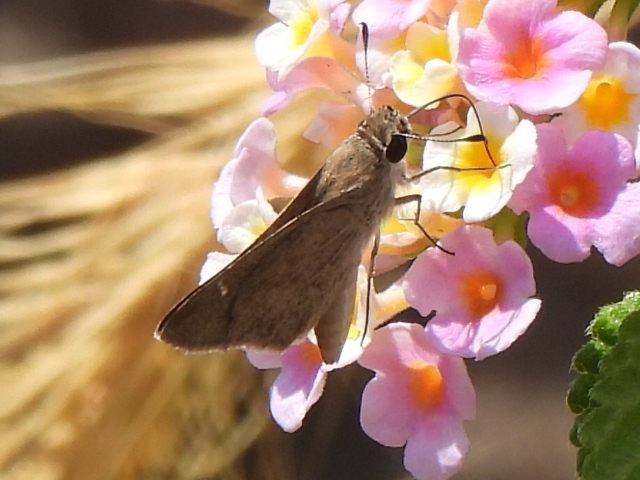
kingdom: Animalia
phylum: Arthropoda
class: Insecta
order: Lepidoptera
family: Hesperiidae
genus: Lerodea
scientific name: Lerodea eufala
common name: Eufala skipper
